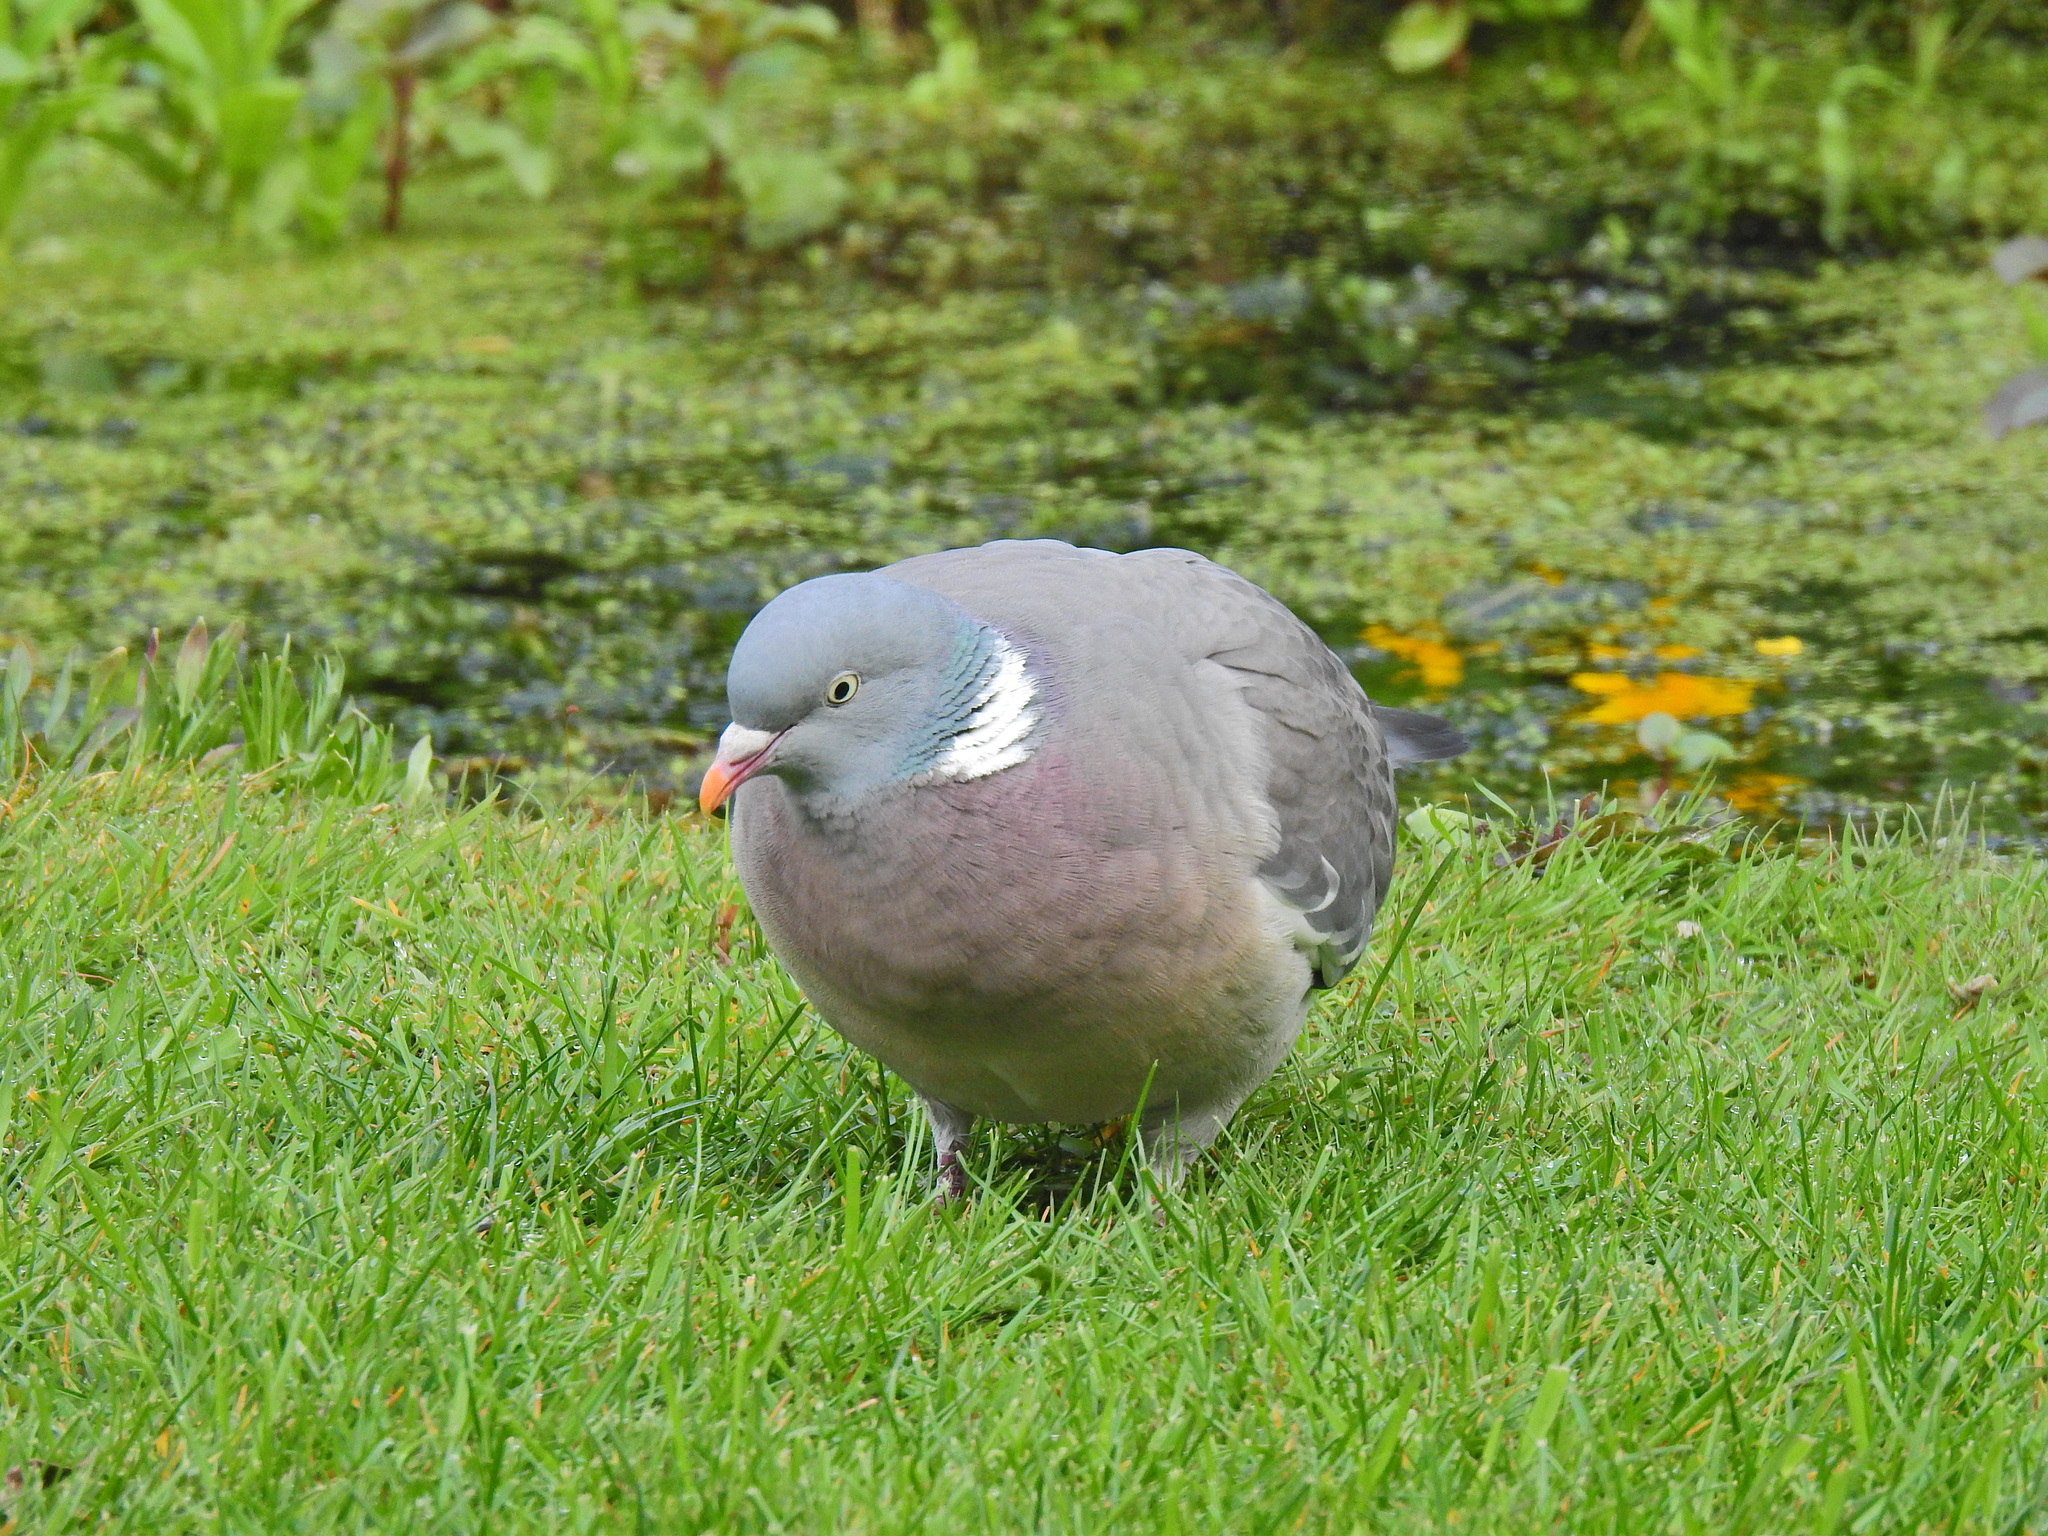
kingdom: Animalia
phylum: Chordata
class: Aves
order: Columbiformes
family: Columbidae
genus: Columba
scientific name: Columba palumbus
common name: Common wood pigeon
